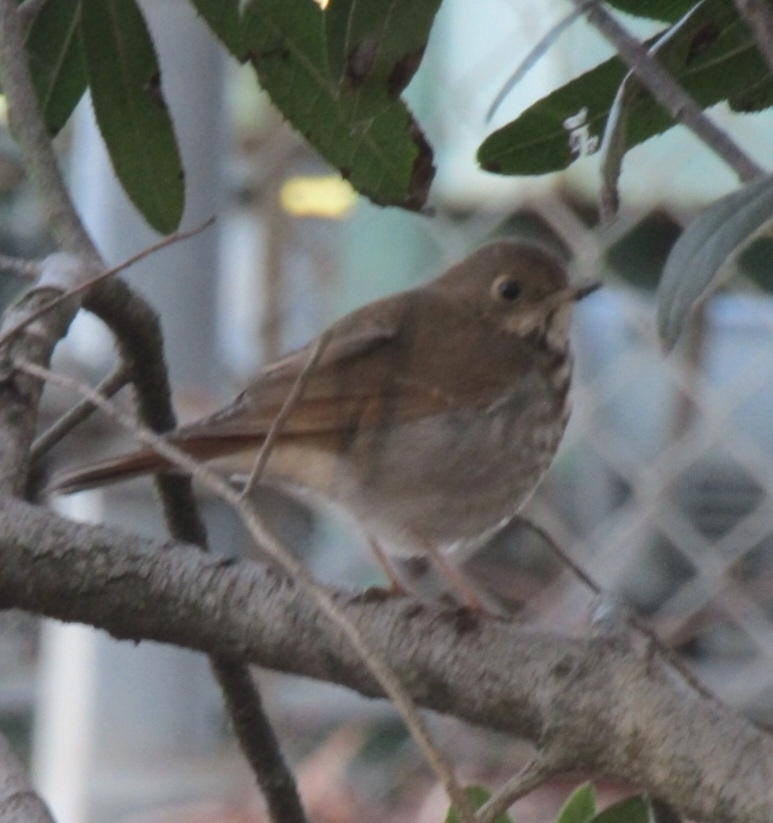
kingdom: Animalia
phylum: Chordata
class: Aves
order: Passeriformes
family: Turdidae
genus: Catharus
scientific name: Catharus guttatus
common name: Hermit thrush
